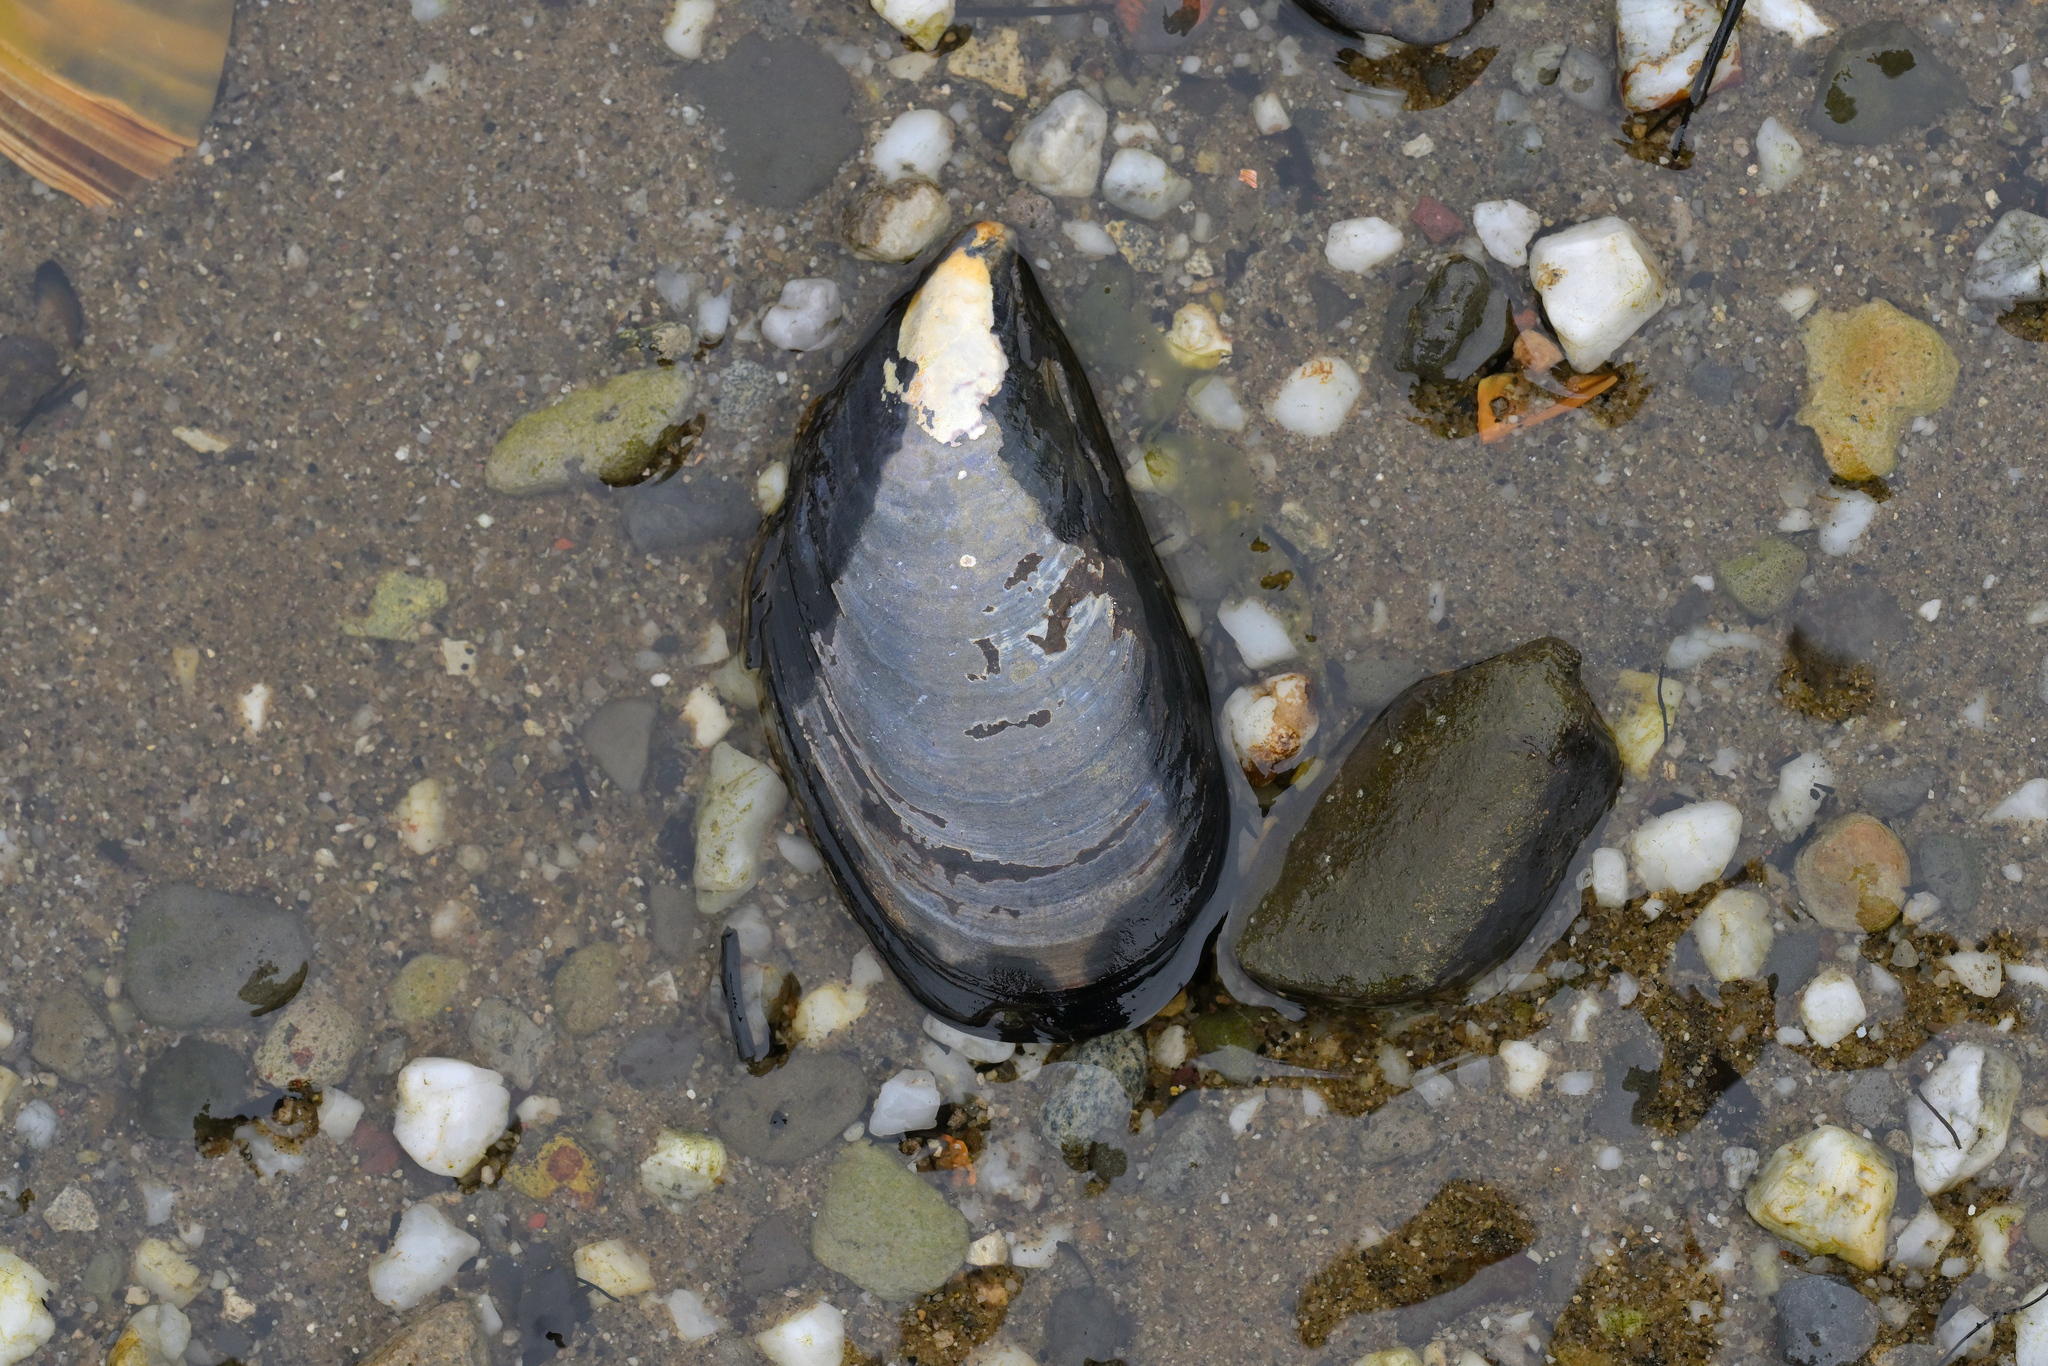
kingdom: Animalia
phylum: Mollusca
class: Bivalvia
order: Mytilida
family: Mytilidae
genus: Mytilus
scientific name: Mytilus planulatus
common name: Australian mussel
